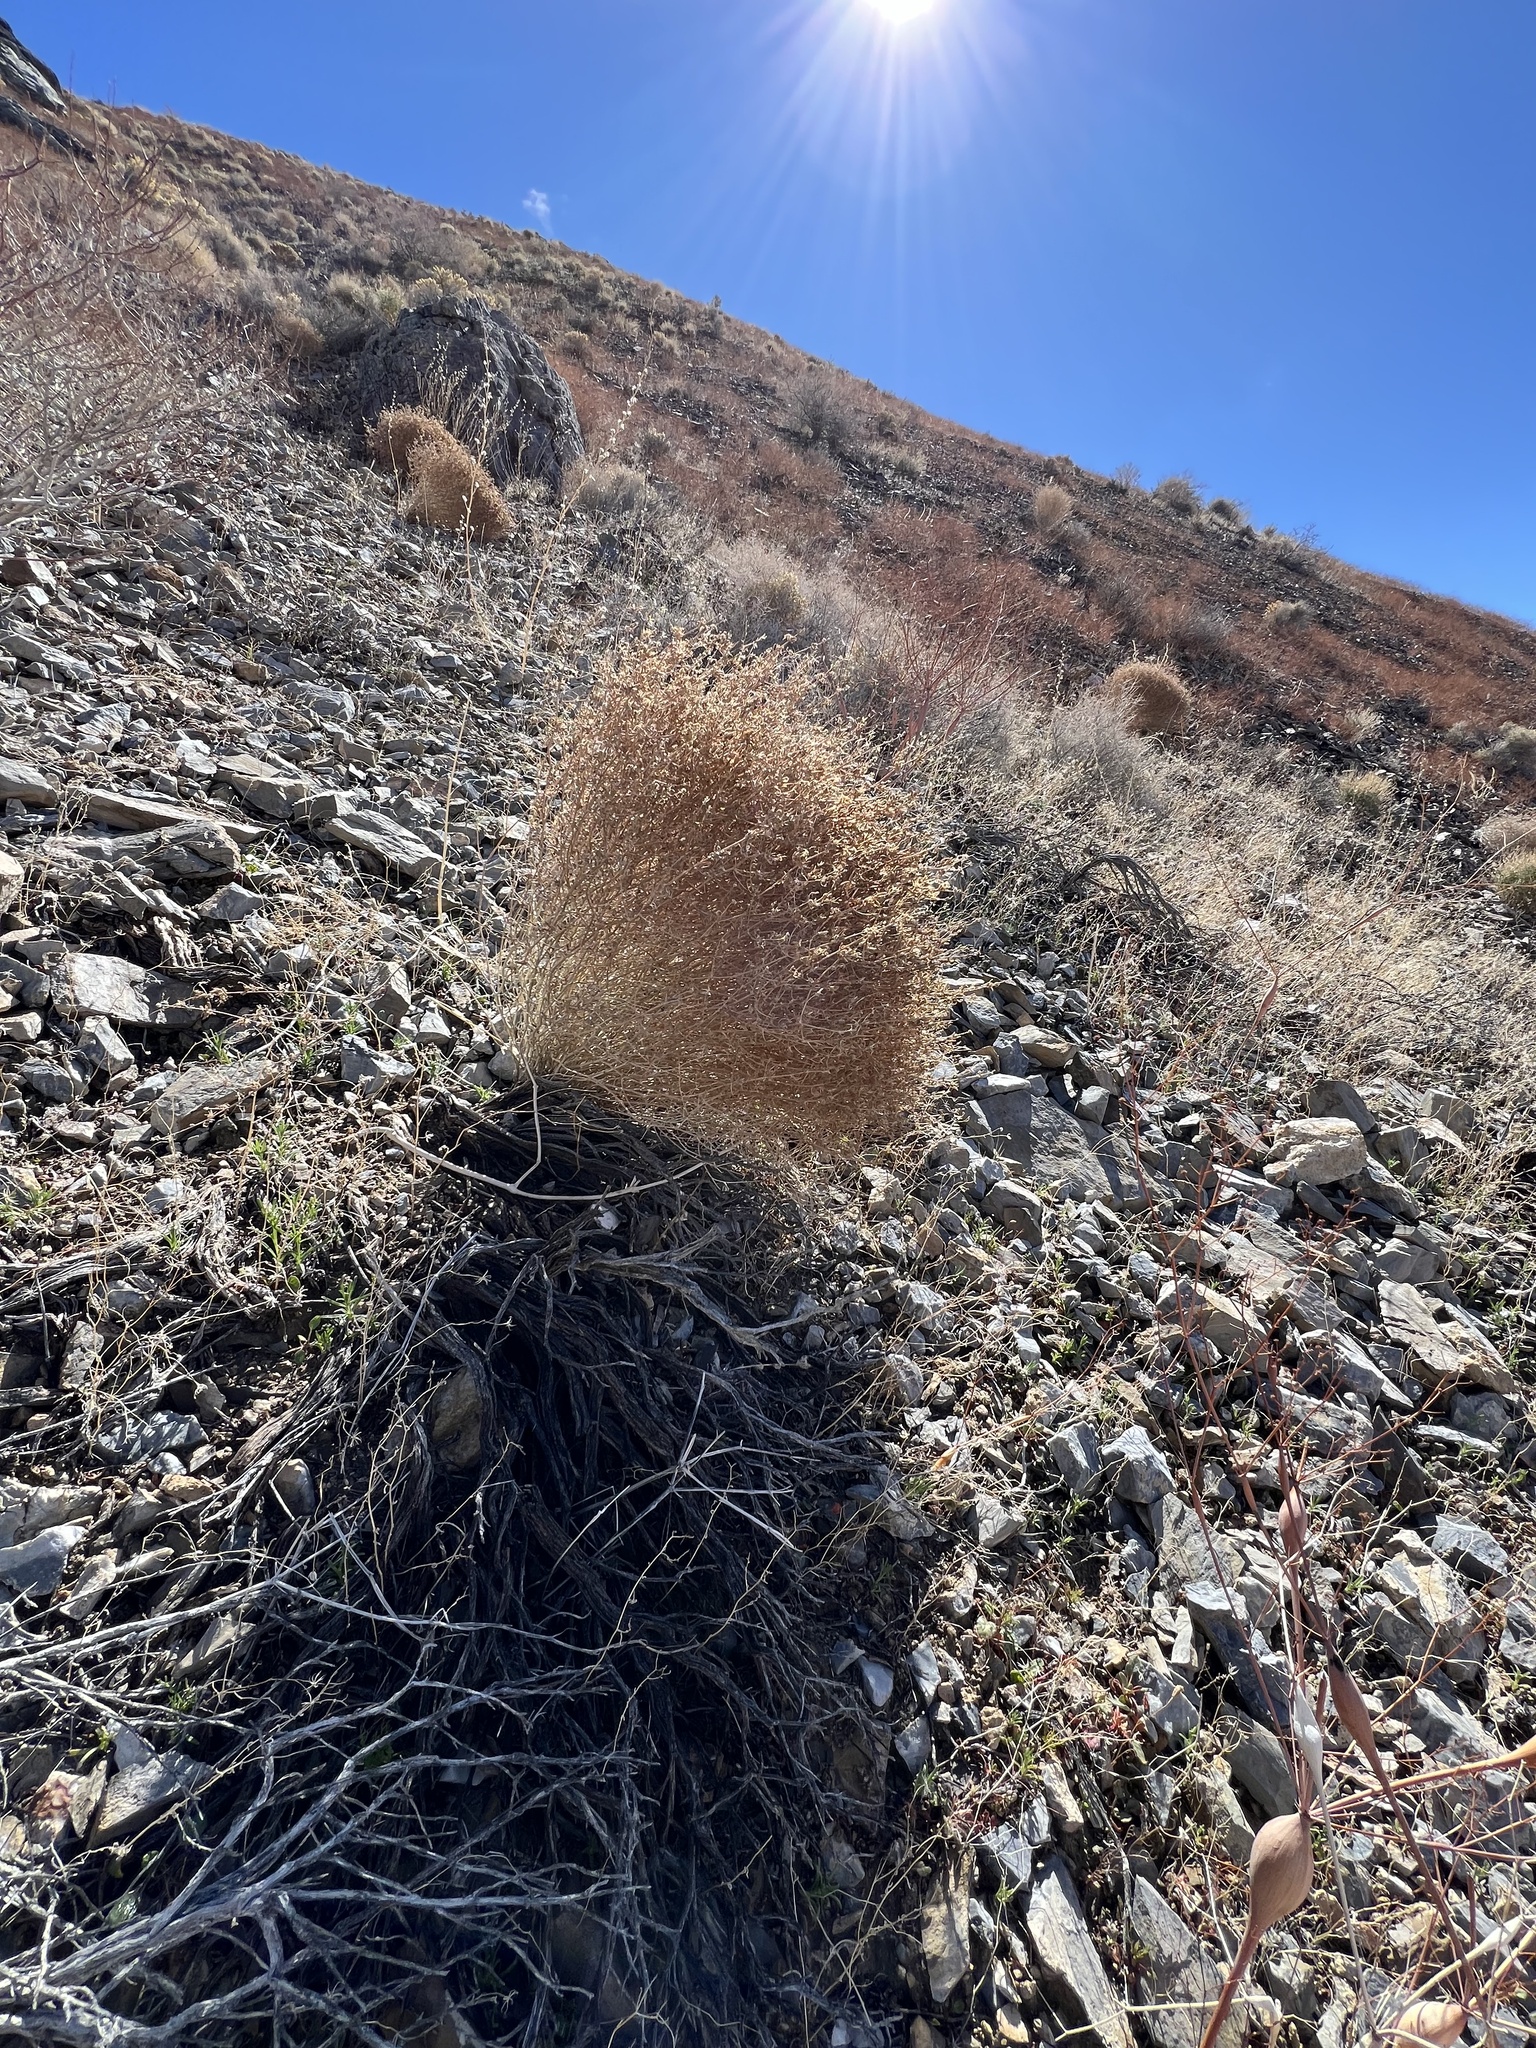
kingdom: Plantae
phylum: Tracheophyta
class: Magnoliopsida
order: Asterales
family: Asteraceae
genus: Stephanomeria
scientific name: Stephanomeria pauciflora
